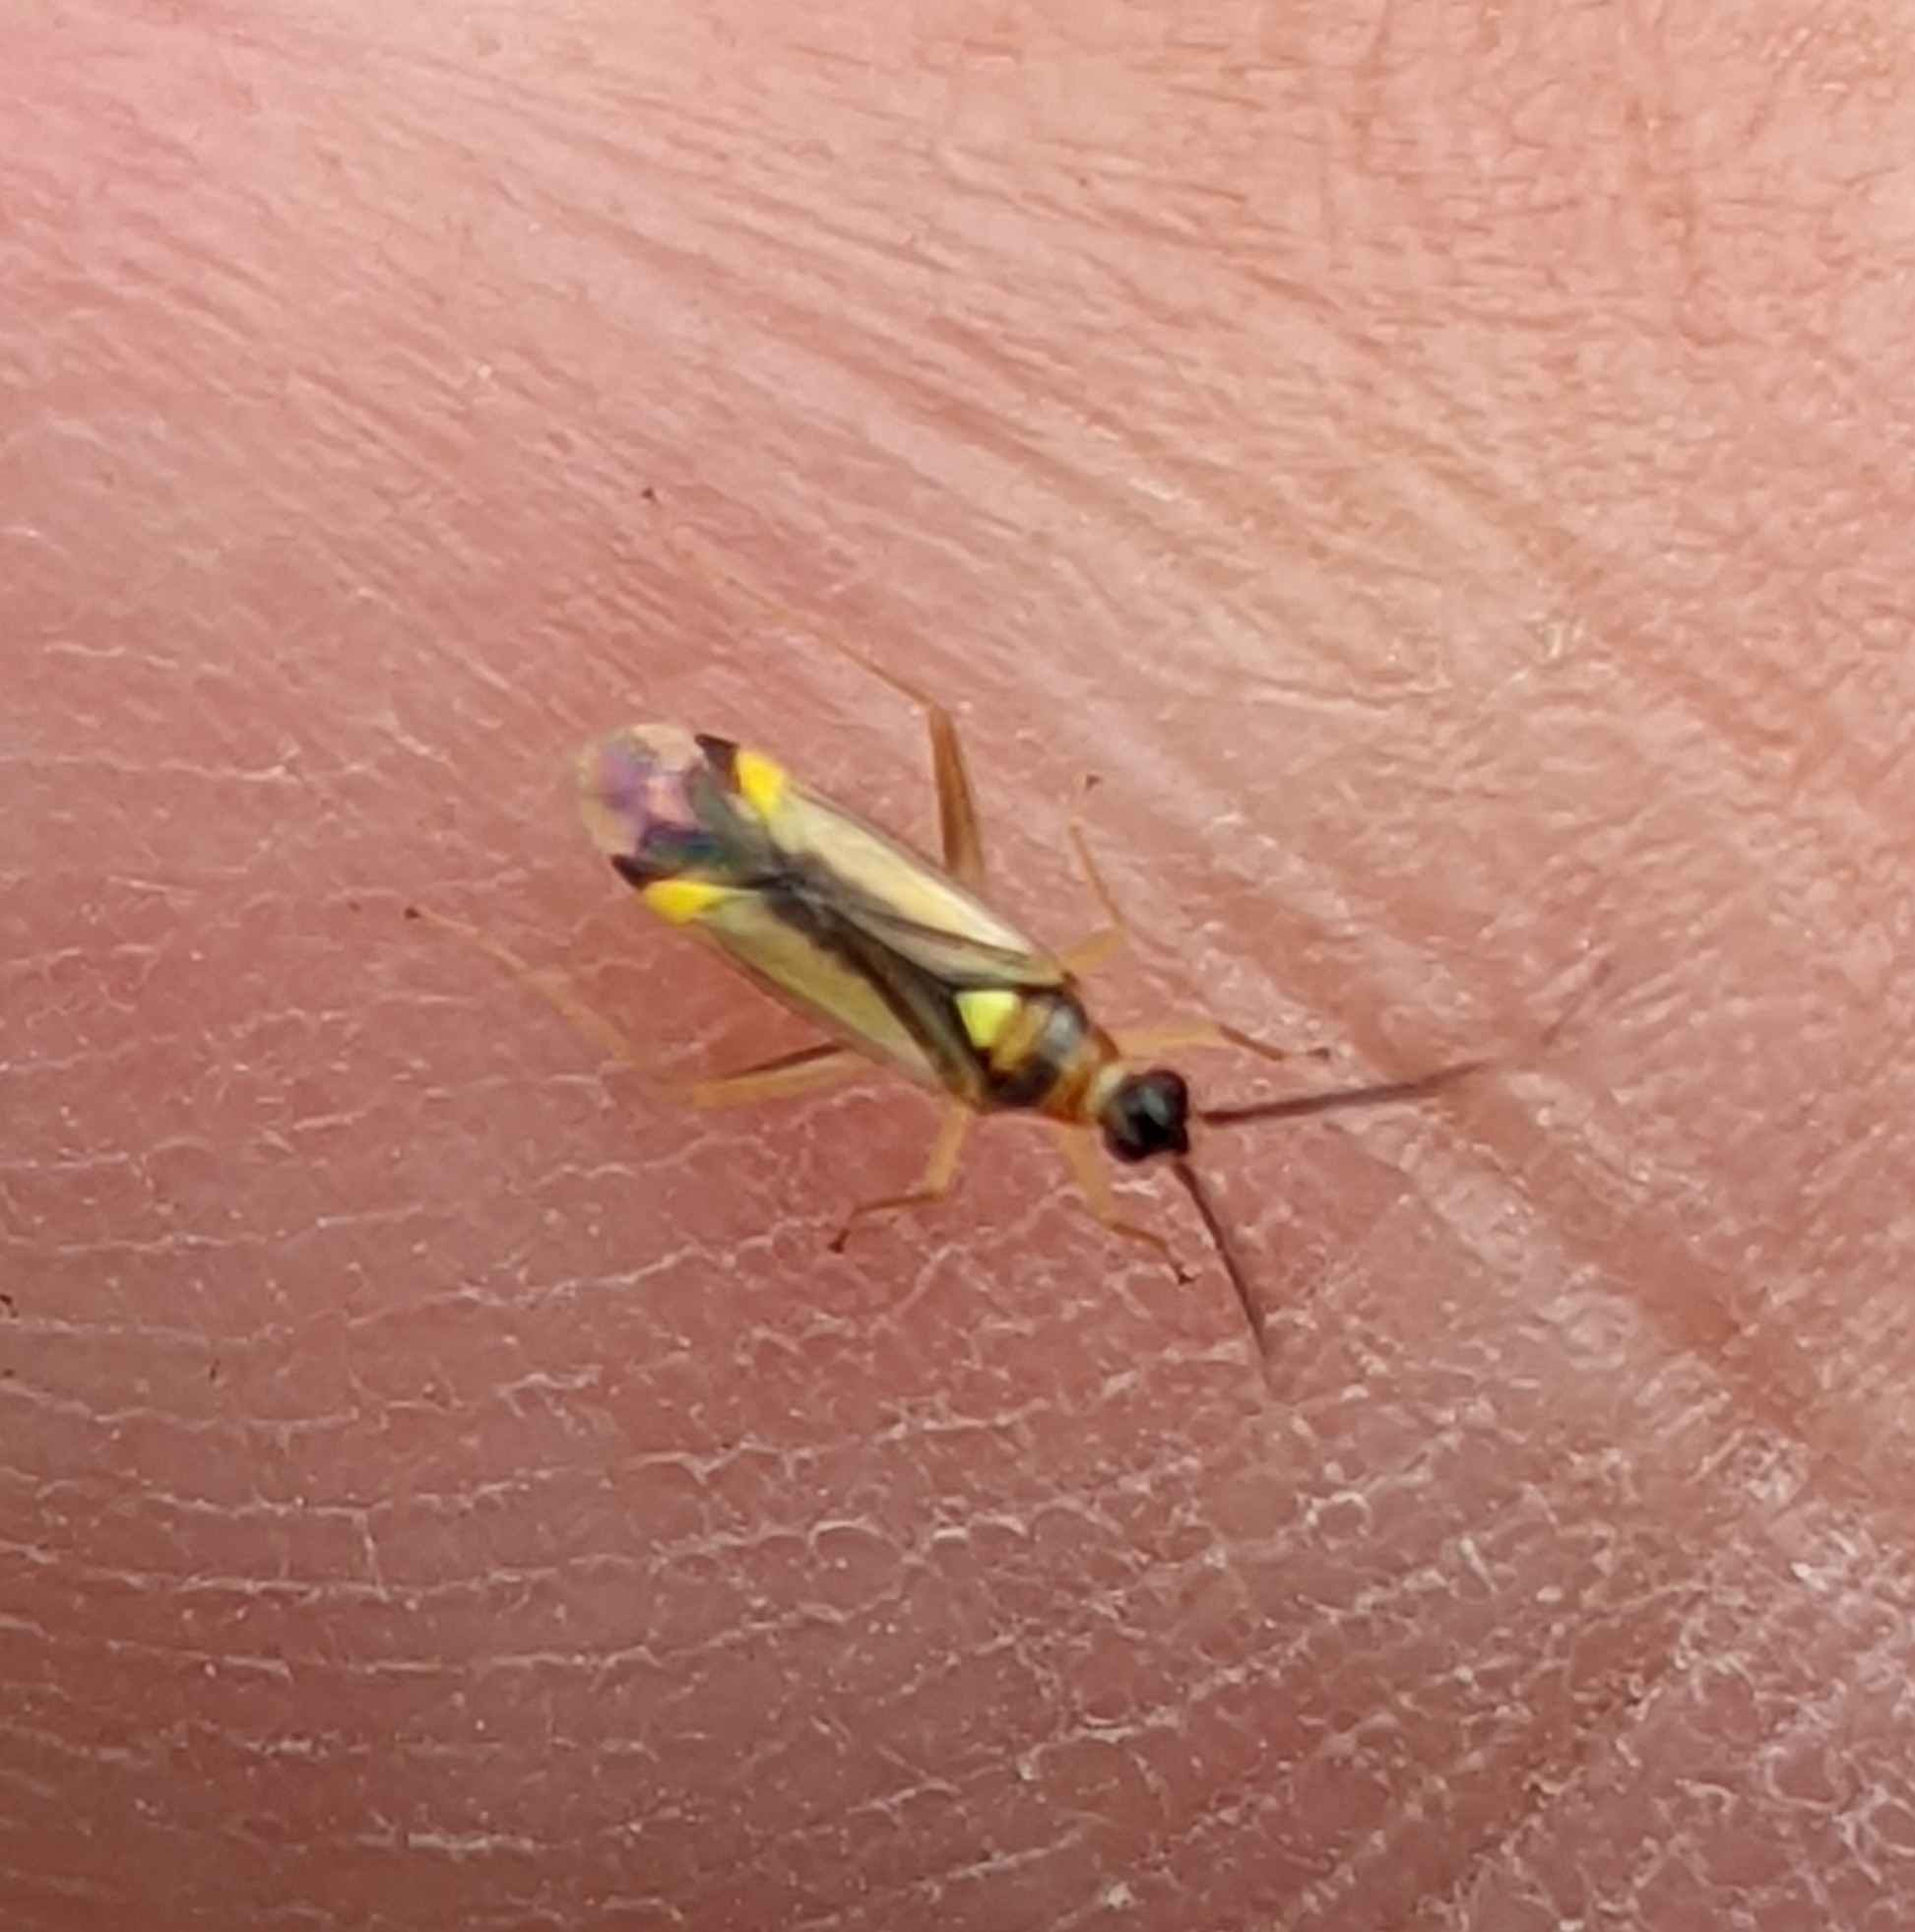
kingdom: Animalia
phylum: Arthropoda
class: Insecta
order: Hemiptera
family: Miridae
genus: Campyloneura
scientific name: Campyloneura virgula
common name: Predatory bug
